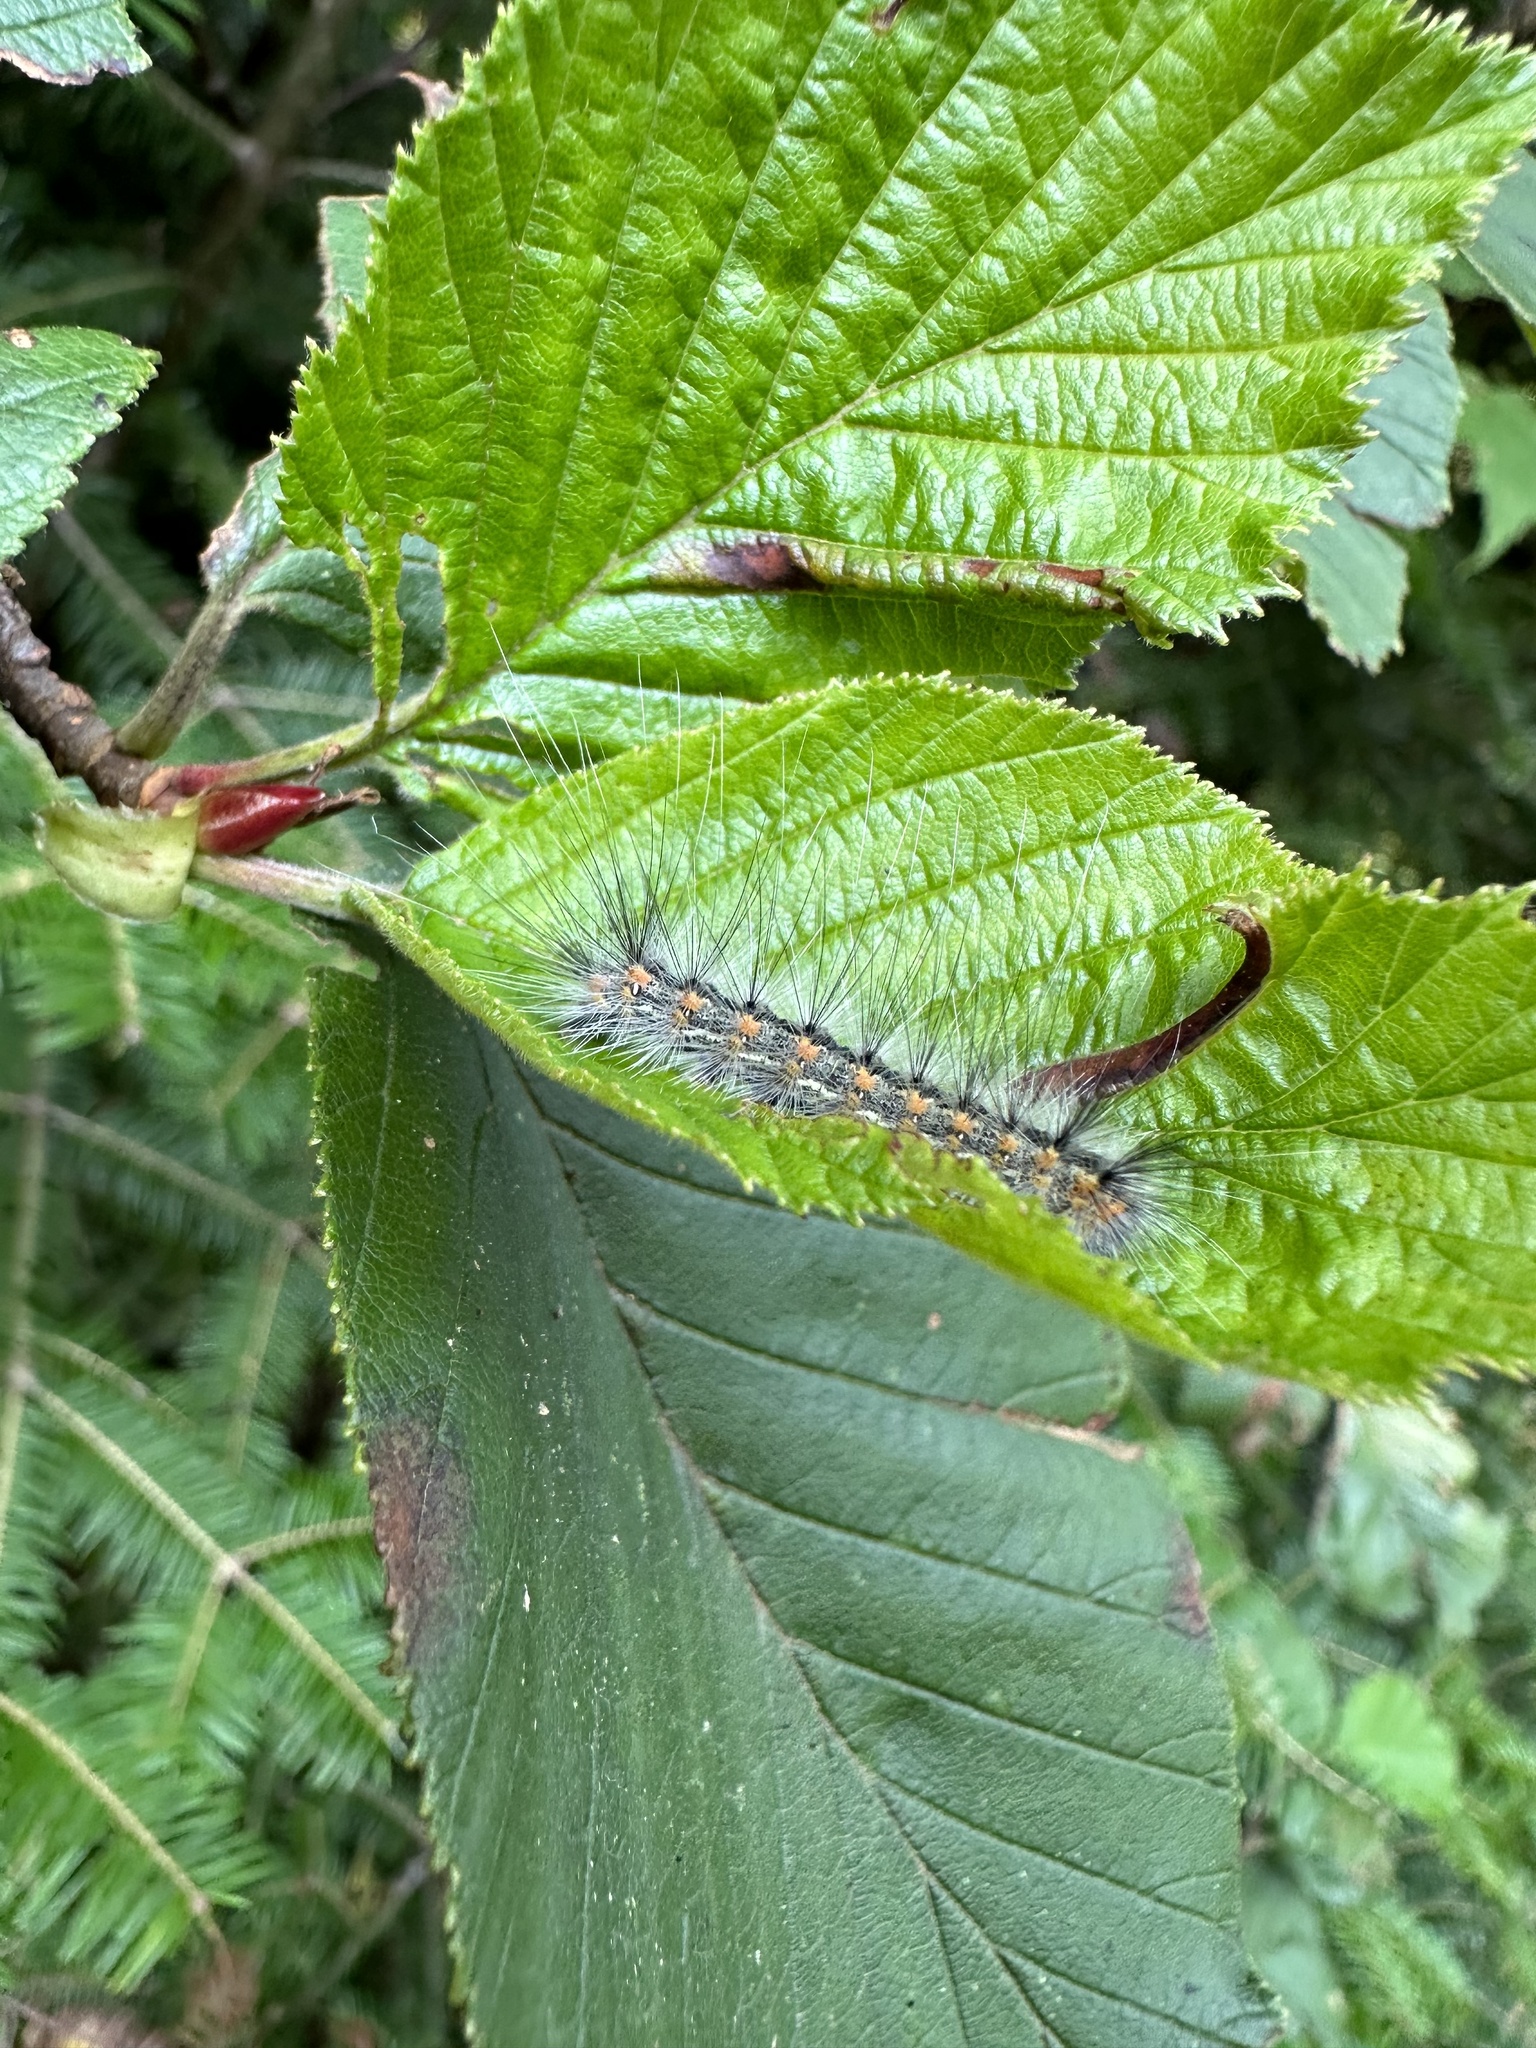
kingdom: Animalia
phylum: Arthropoda
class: Insecta
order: Lepidoptera
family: Erebidae
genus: Hyphantria
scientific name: Hyphantria cunea
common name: American white moth
